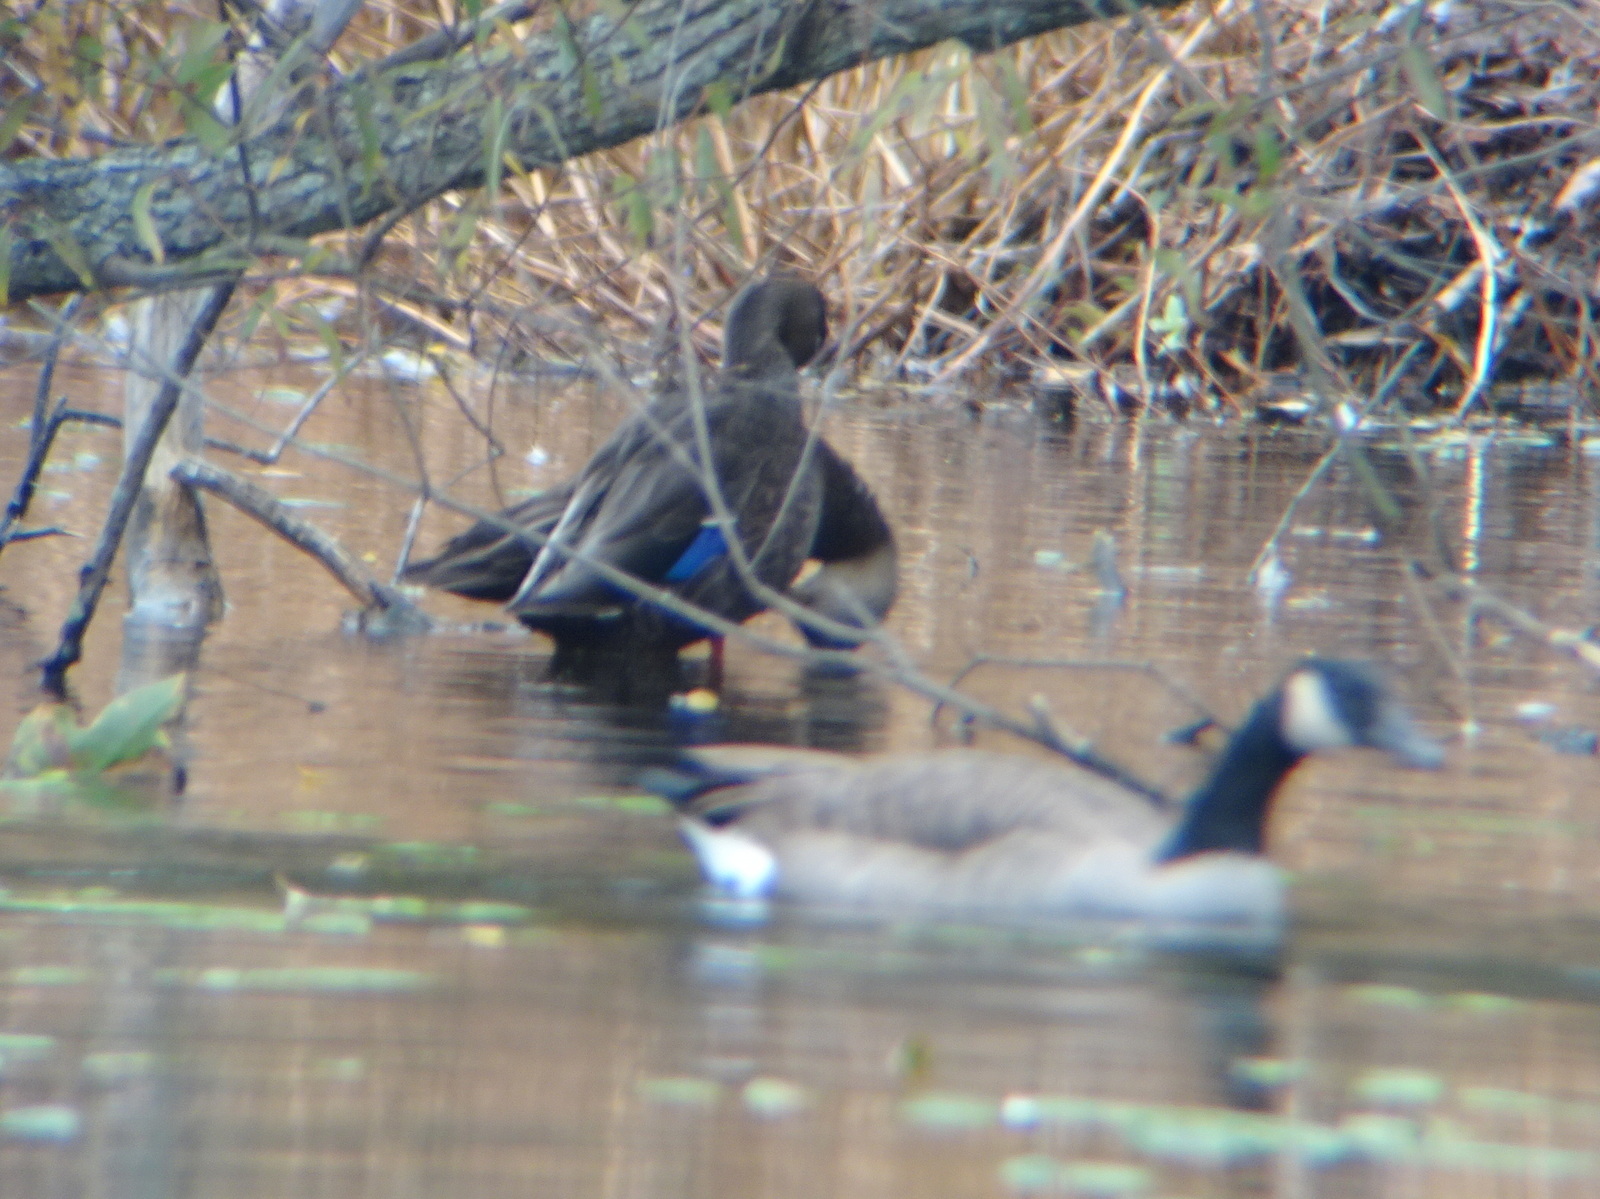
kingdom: Animalia
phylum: Chordata
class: Aves
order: Anseriformes
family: Anatidae
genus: Anas
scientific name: Anas
